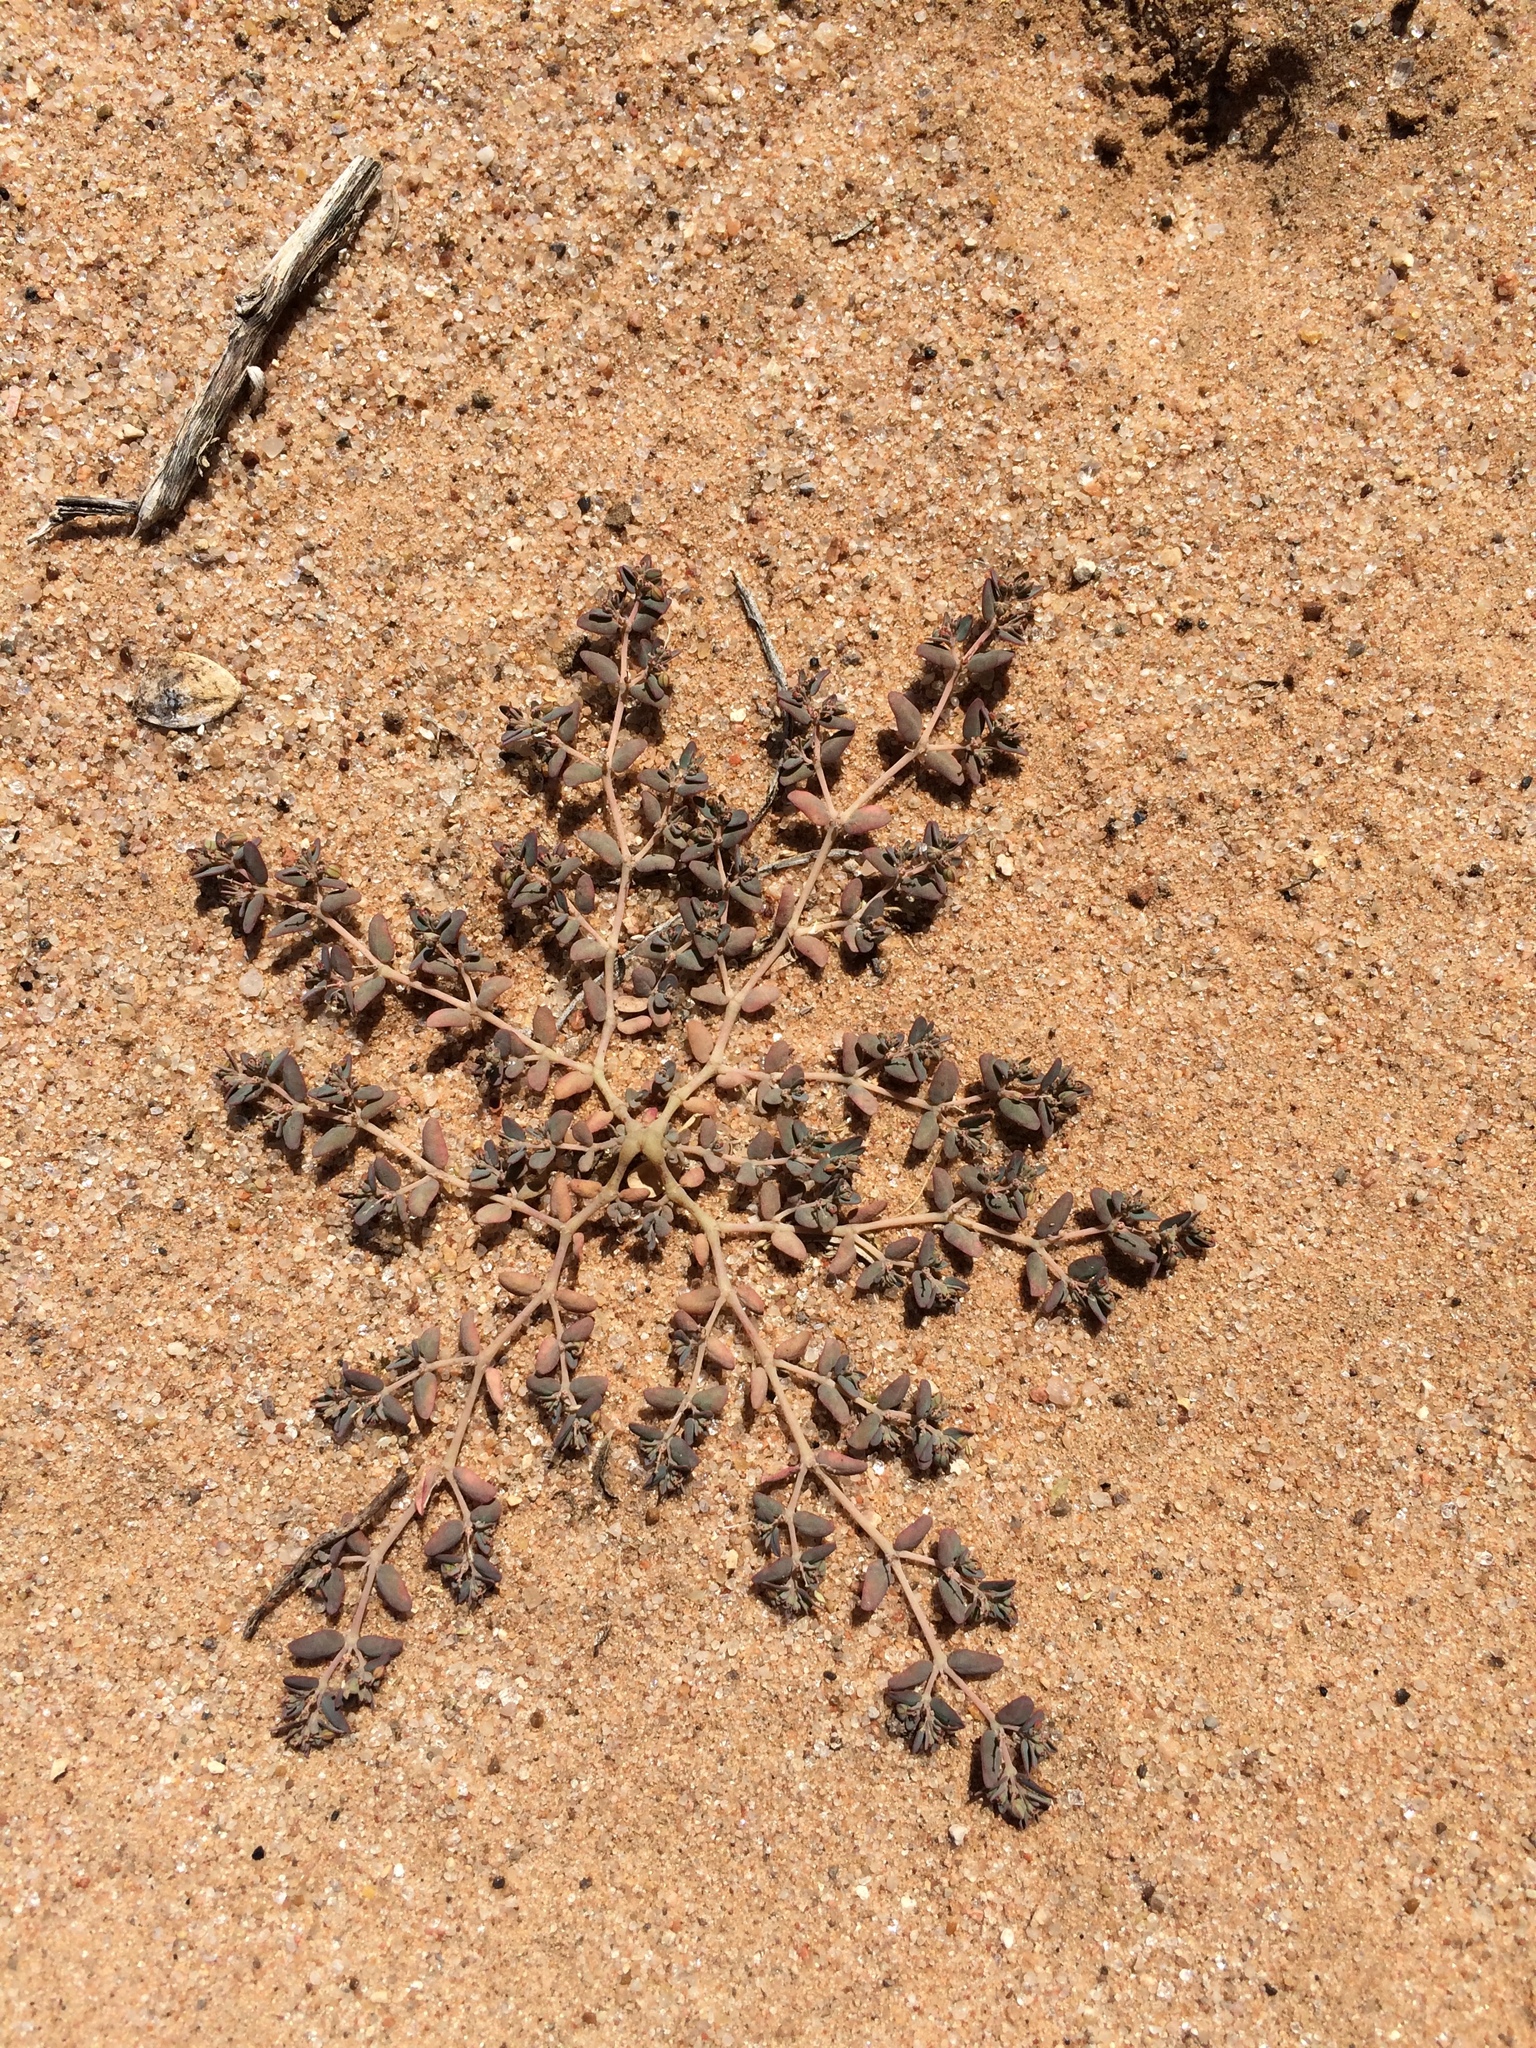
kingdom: Plantae
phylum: Tracheophyta
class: Magnoliopsida
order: Malpighiales
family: Euphorbiaceae
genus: Euphorbia
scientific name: Euphorbia micromera
